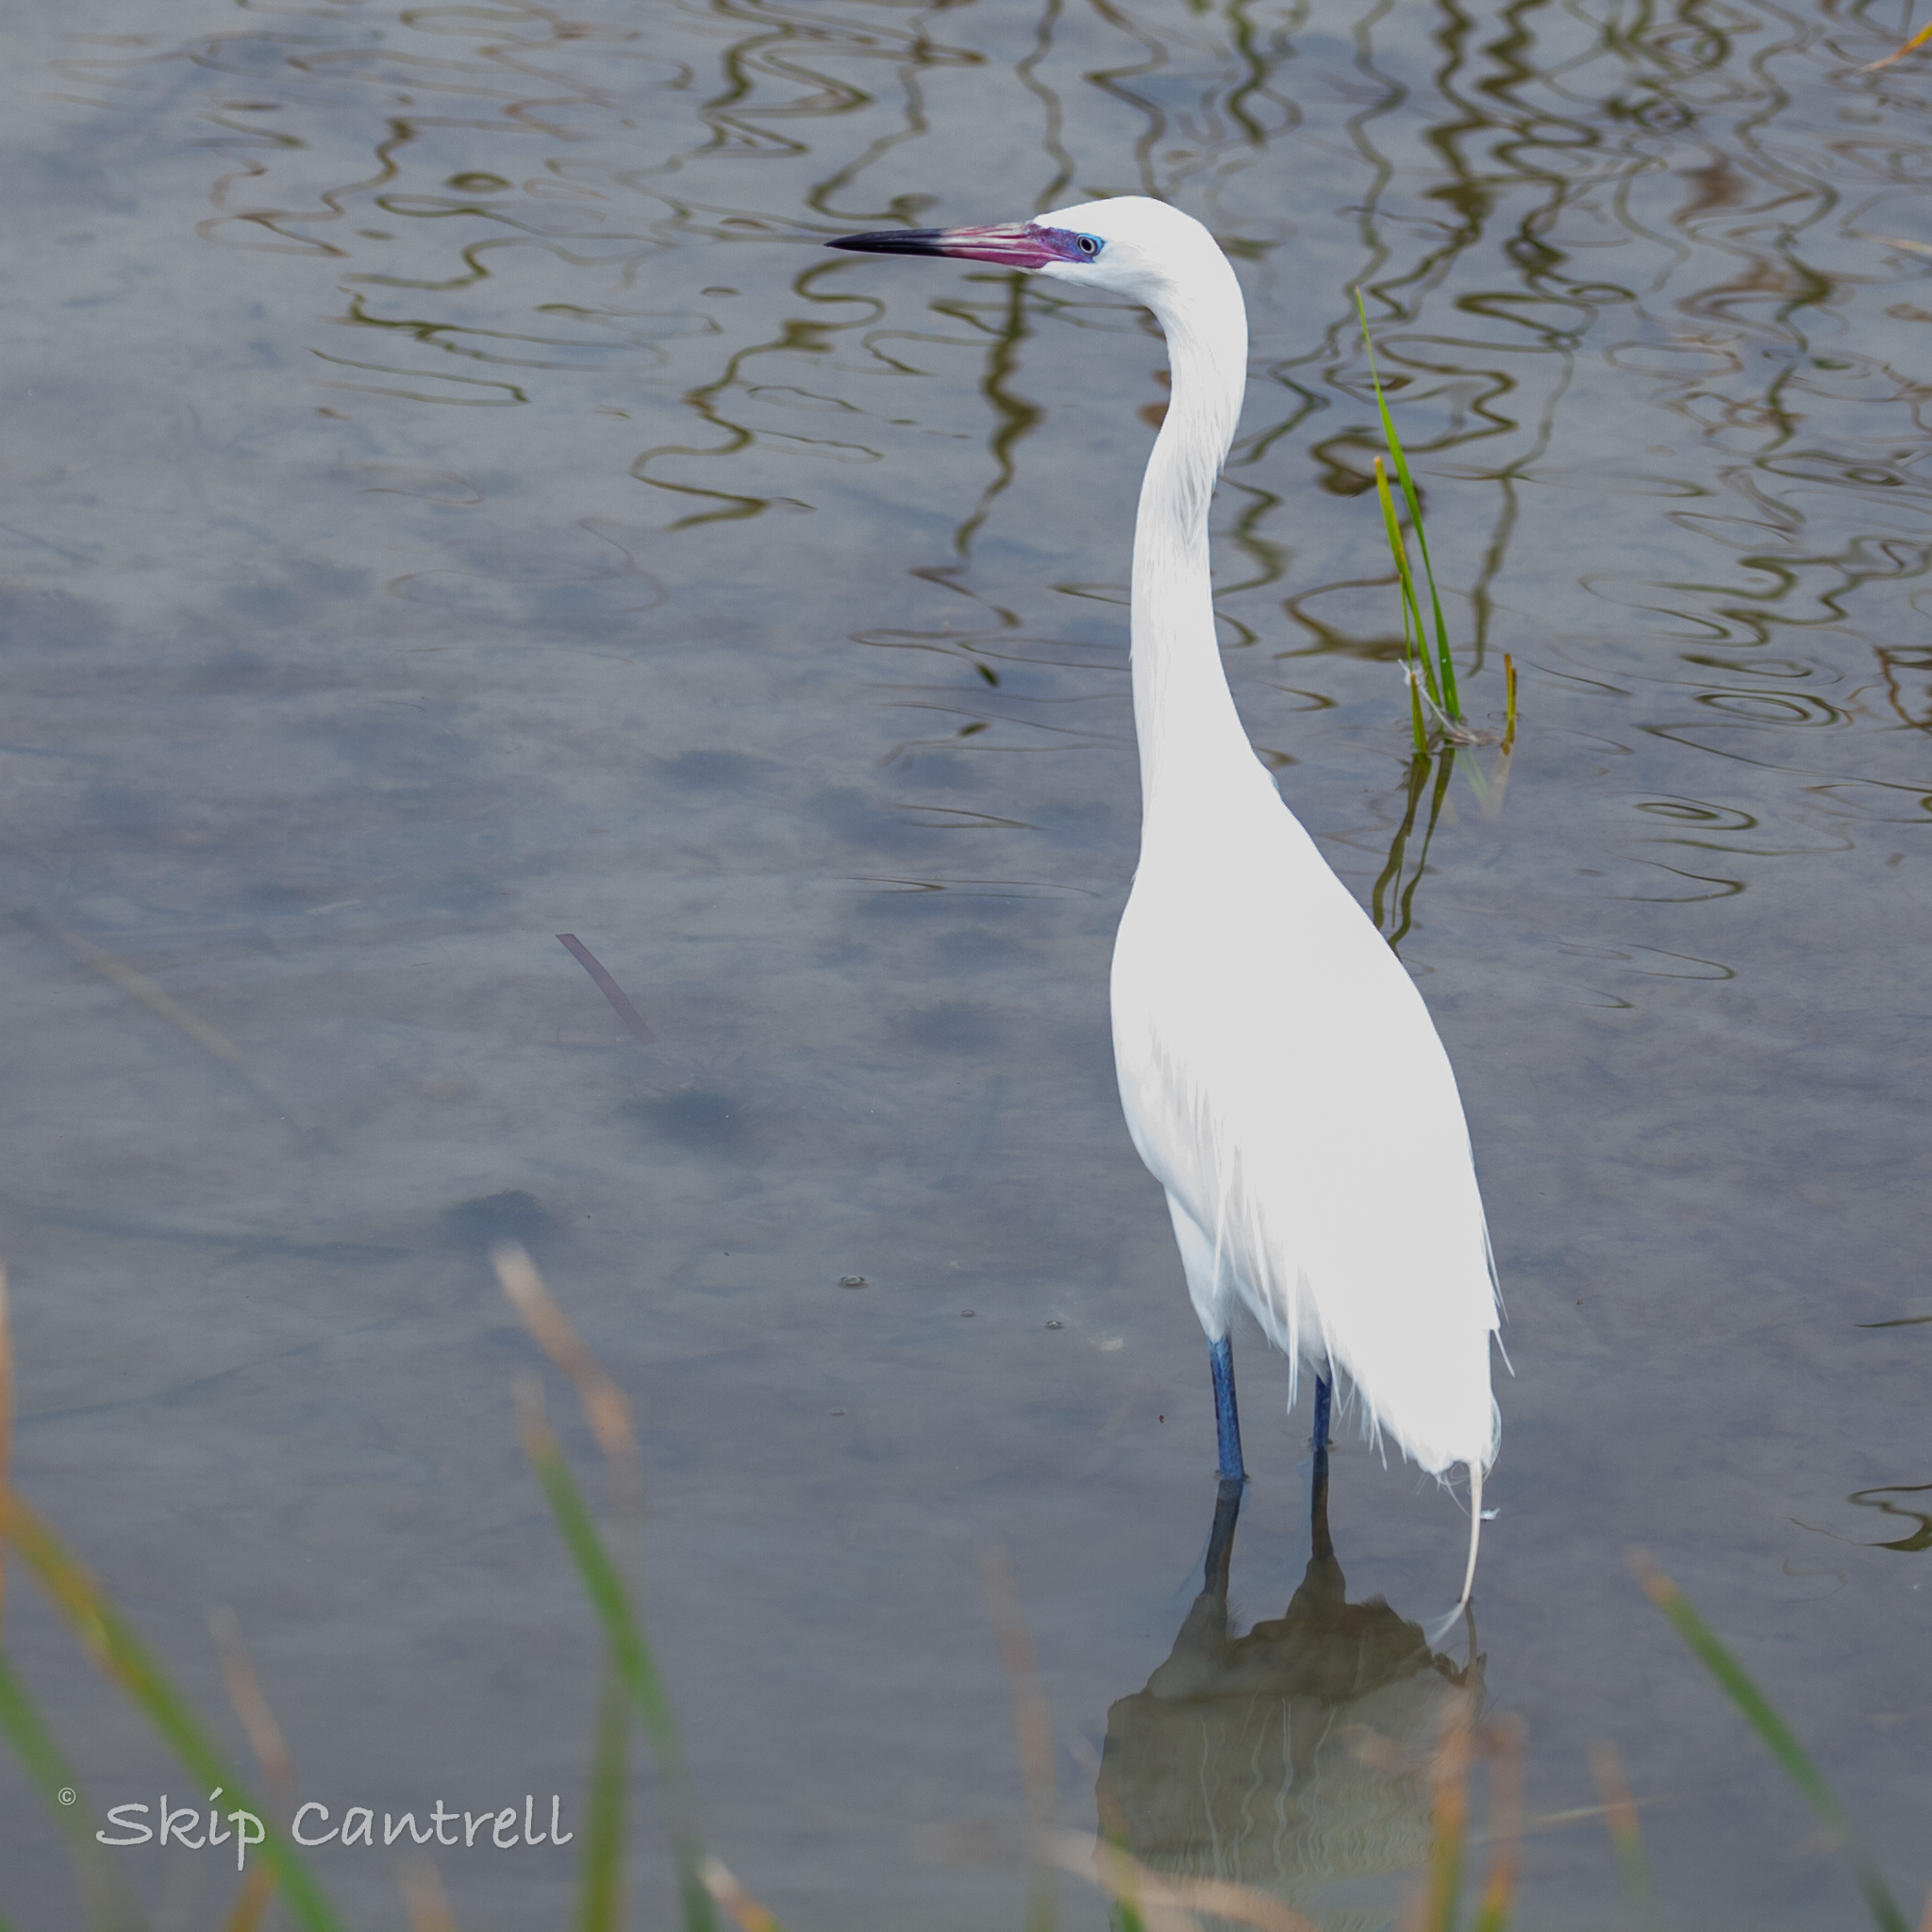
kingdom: Animalia
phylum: Chordata
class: Aves
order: Pelecaniformes
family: Ardeidae
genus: Egretta
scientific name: Egretta rufescens
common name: Reddish egret
